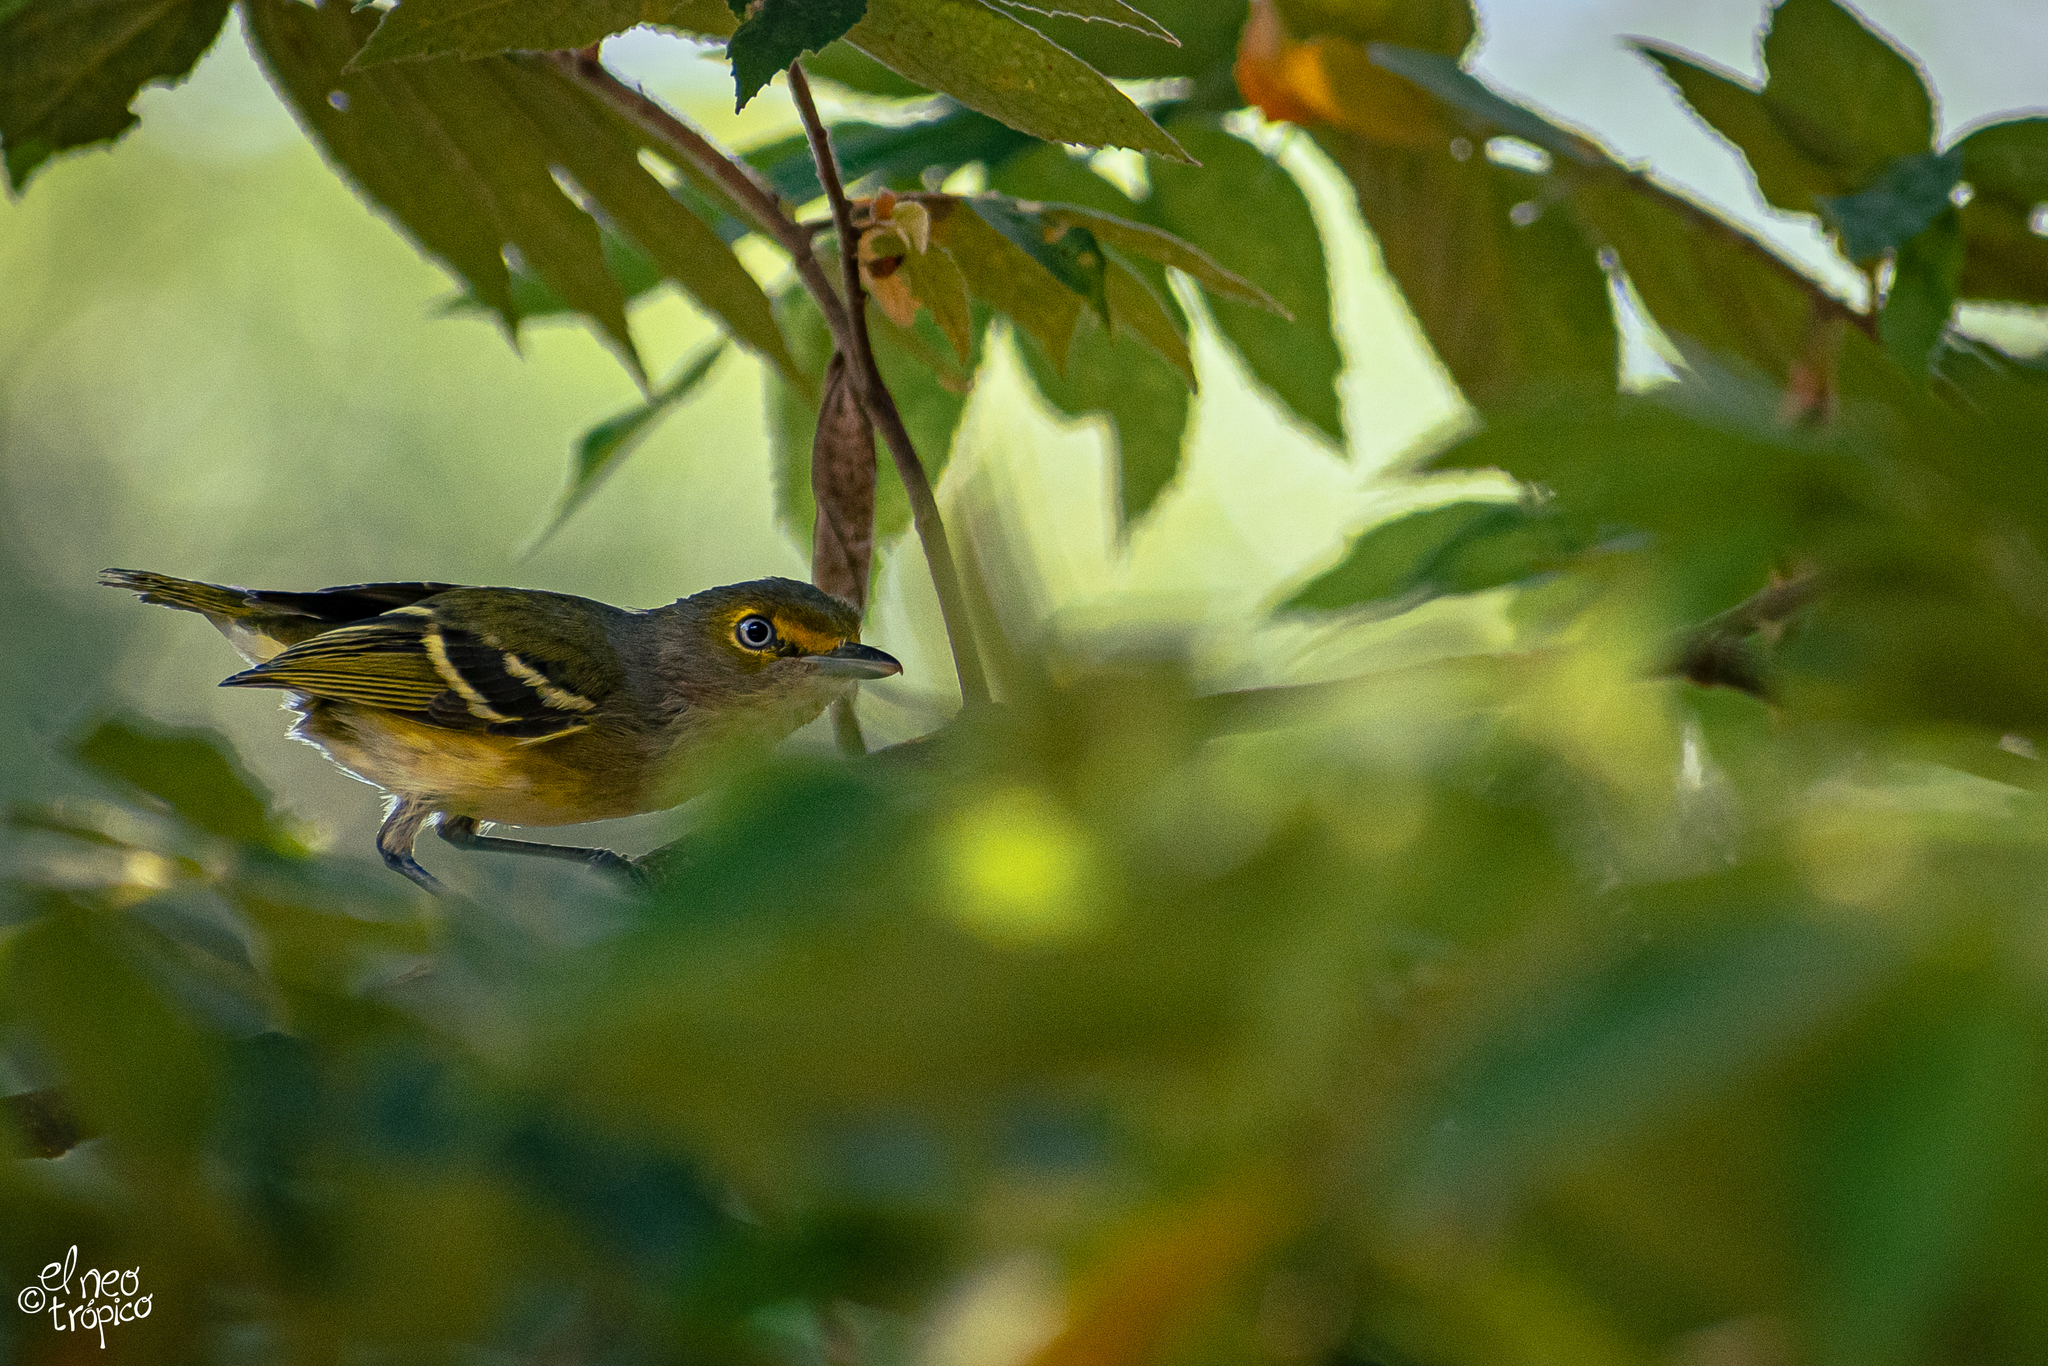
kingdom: Animalia
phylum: Chordata
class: Aves
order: Passeriformes
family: Vireonidae
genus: Vireo
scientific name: Vireo griseus
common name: White-eyed vireo
